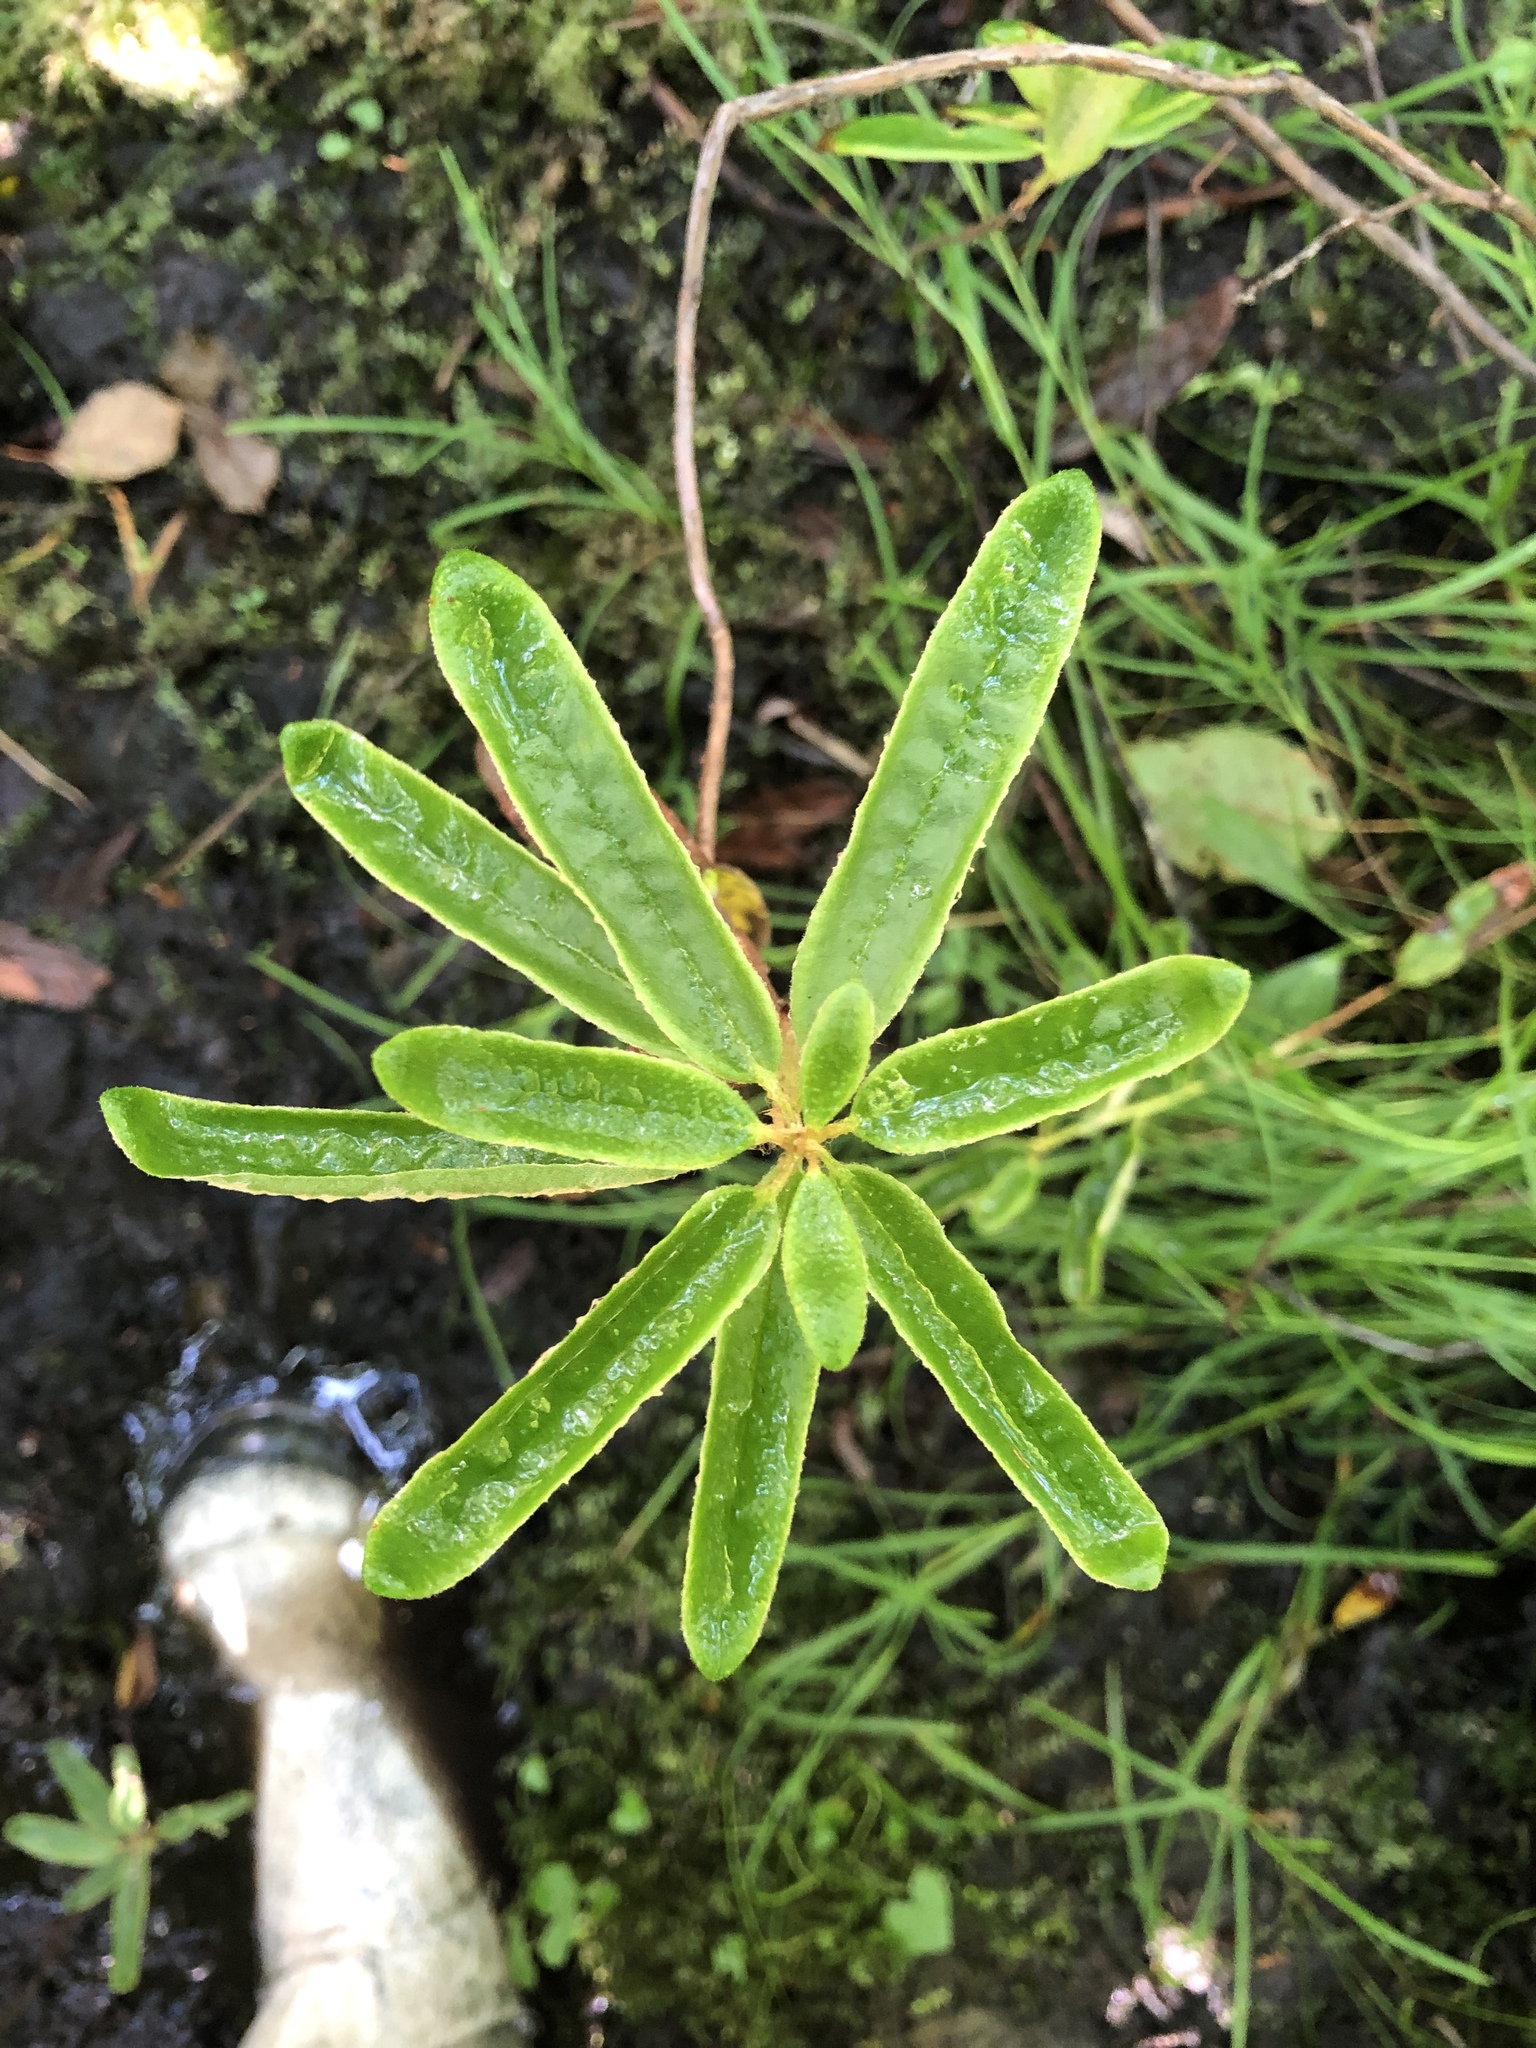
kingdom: Plantae
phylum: Tracheophyta
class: Magnoliopsida
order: Ericales
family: Ericaceae
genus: Rhododendron
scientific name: Rhododendron groenlandicum
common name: Bog labrador tea
